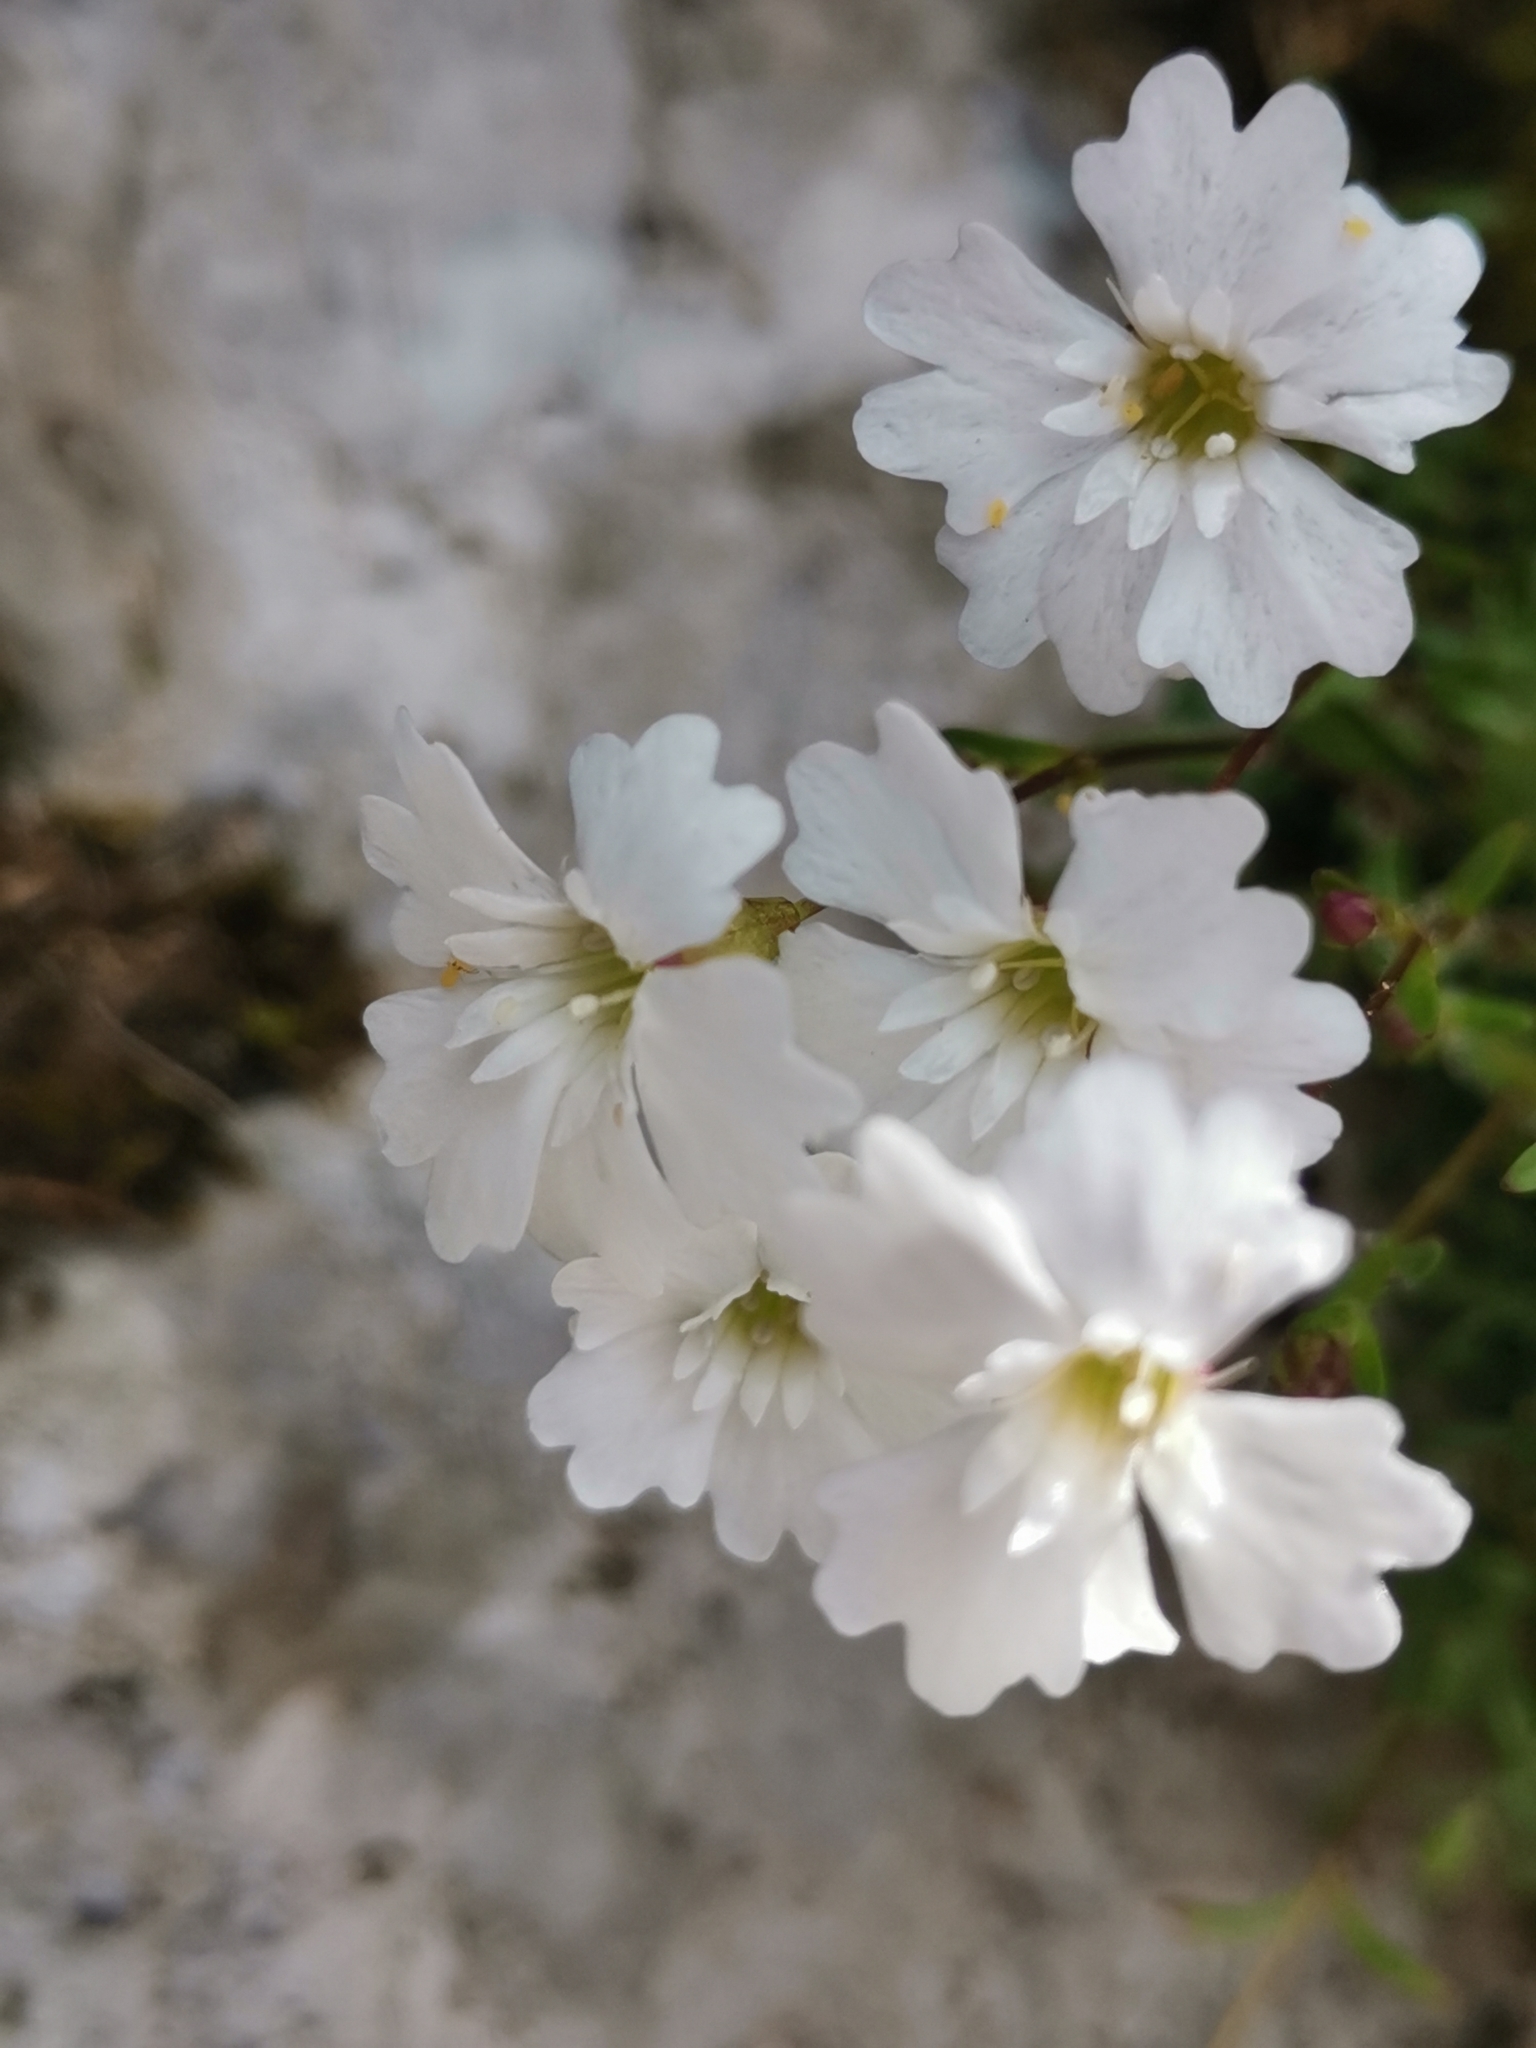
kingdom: Plantae
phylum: Tracheophyta
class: Magnoliopsida
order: Caryophyllales
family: Caryophyllaceae
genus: Heliosperma
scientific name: Heliosperma pusillum
